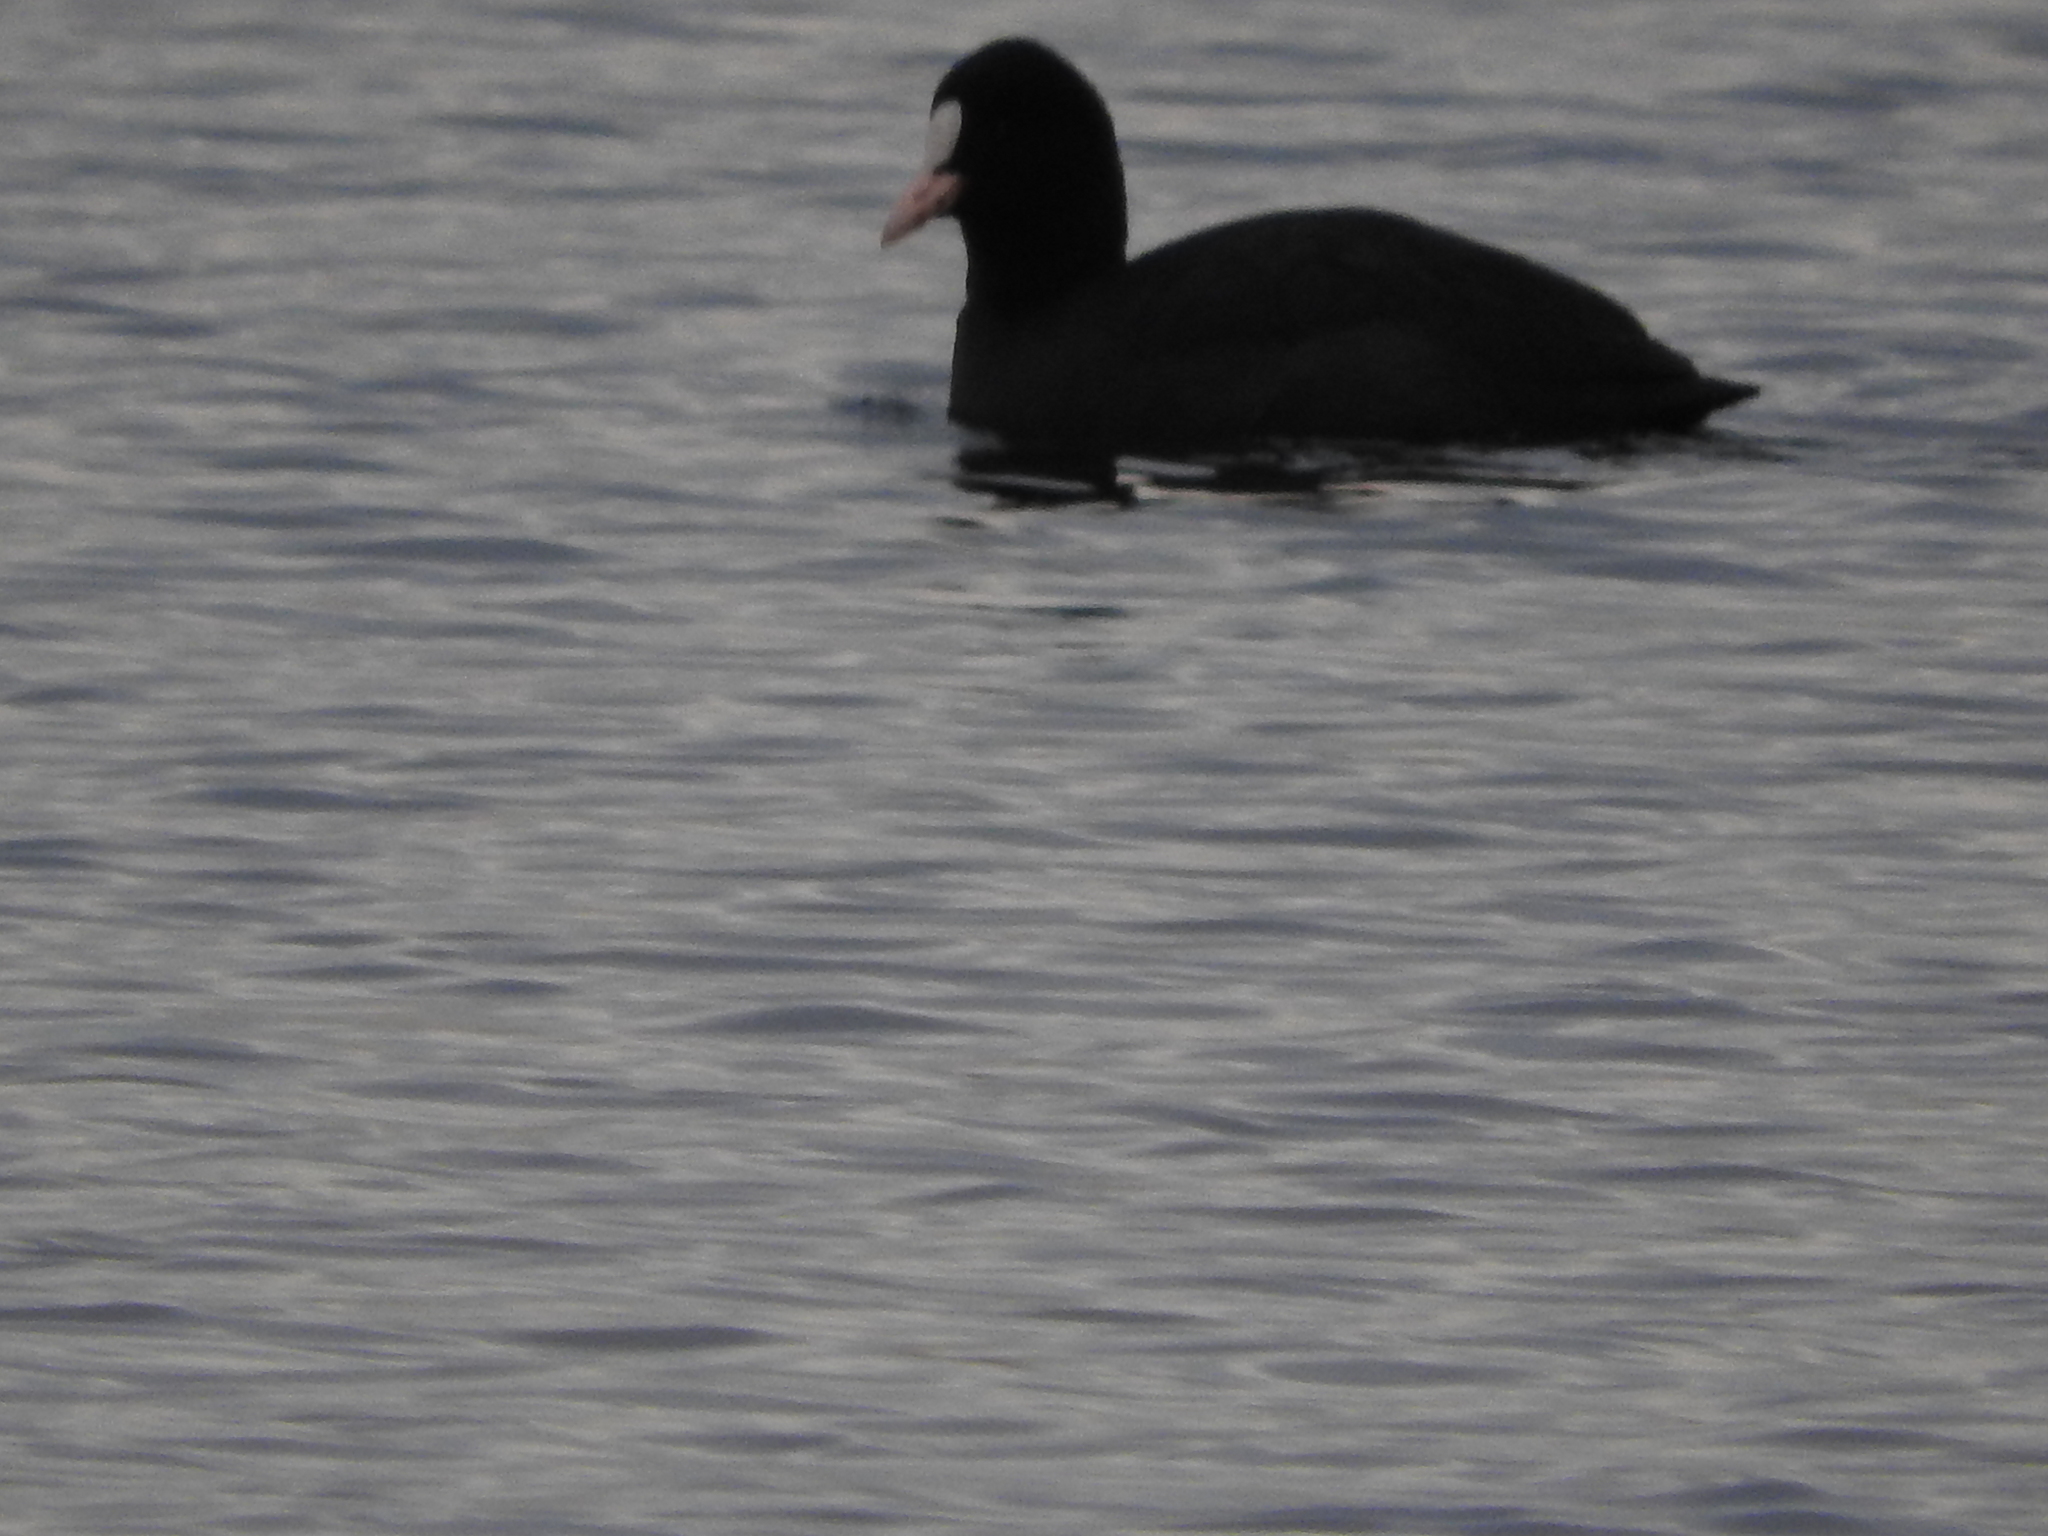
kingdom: Animalia
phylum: Chordata
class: Aves
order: Gruiformes
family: Rallidae
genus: Fulica
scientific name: Fulica atra
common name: Eurasian coot
